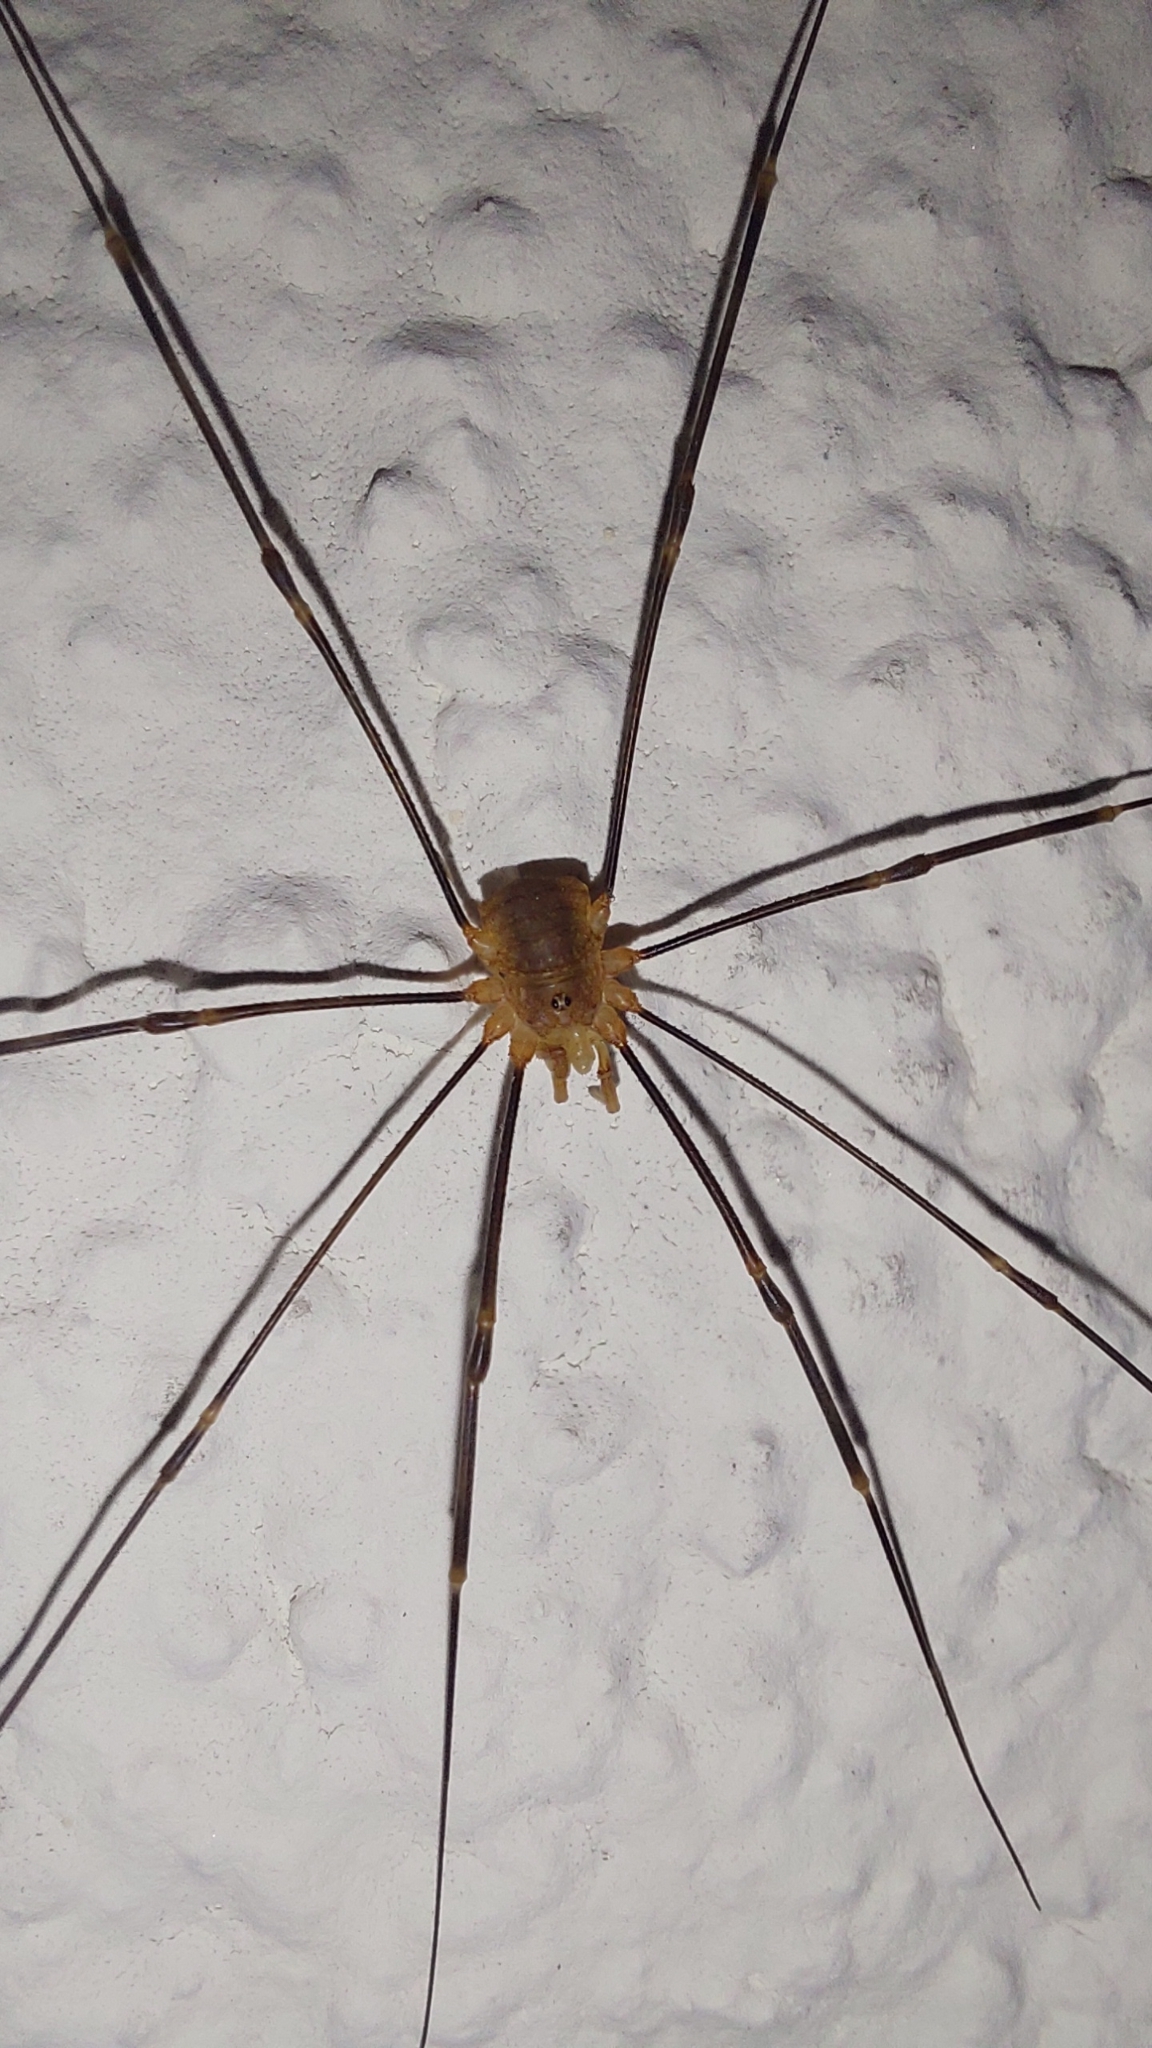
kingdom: Animalia
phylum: Arthropoda
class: Arachnida
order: Opiliones
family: Phalangiidae
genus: Opilio
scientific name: Opilio canestrinii
